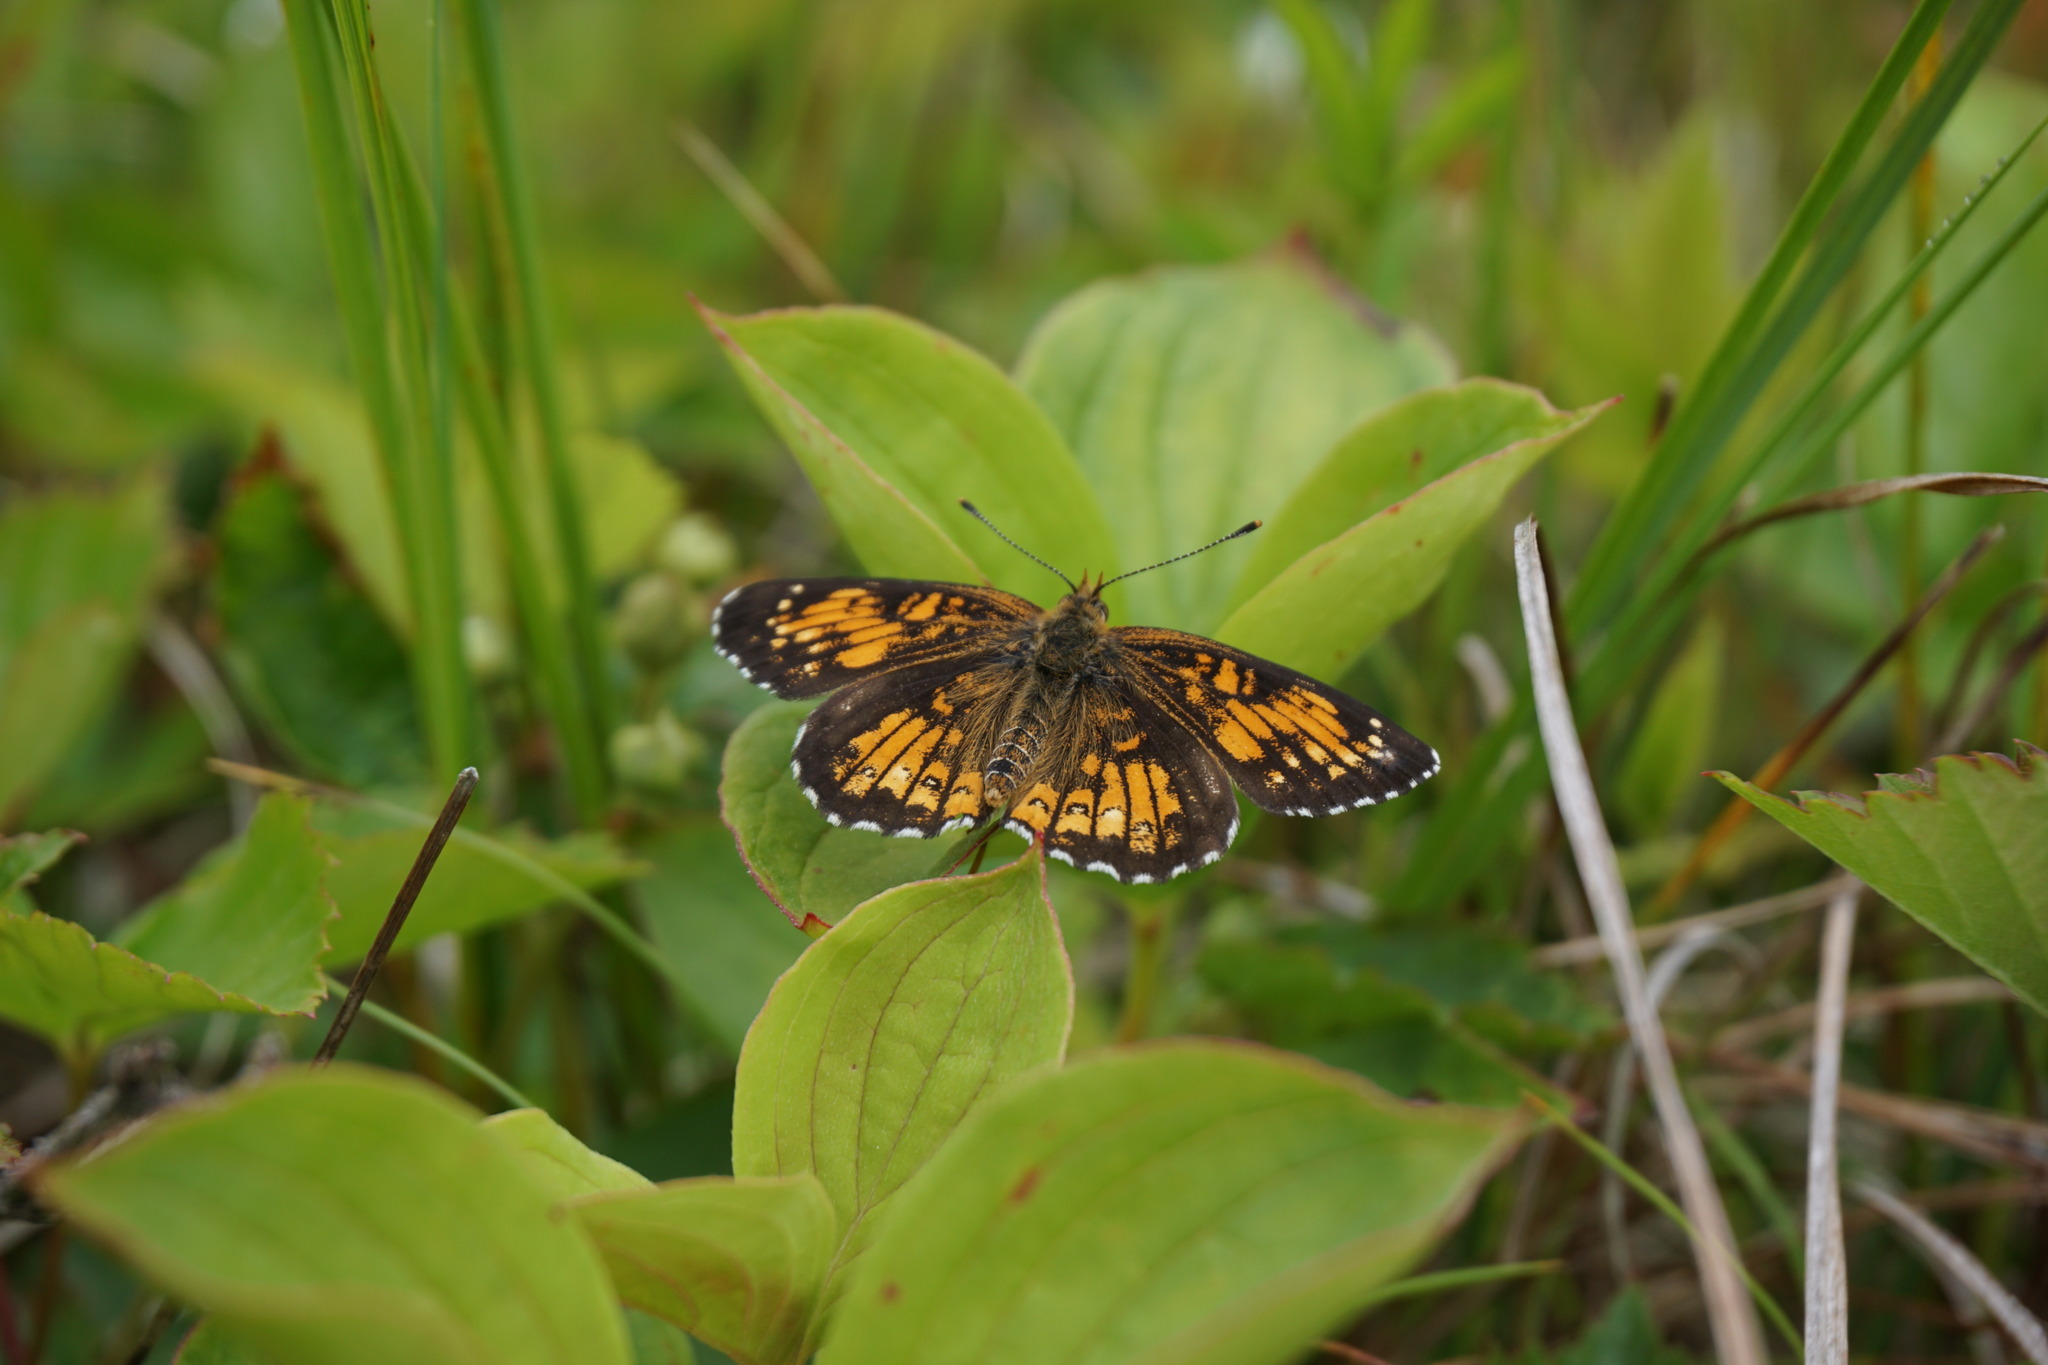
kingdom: Animalia
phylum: Arthropoda
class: Insecta
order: Lepidoptera
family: Nymphalidae
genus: Chlosyne
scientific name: Chlosyne harrisii
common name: Harris's checkerspot
